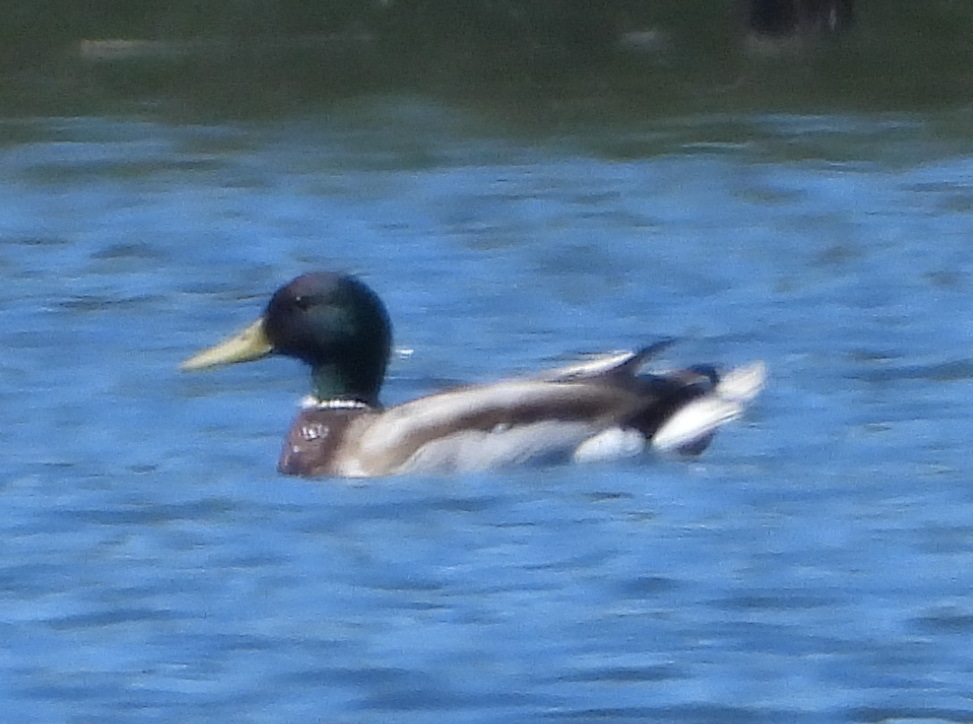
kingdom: Animalia
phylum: Chordata
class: Aves
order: Anseriformes
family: Anatidae
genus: Anas
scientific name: Anas platyrhynchos
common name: Mallard
